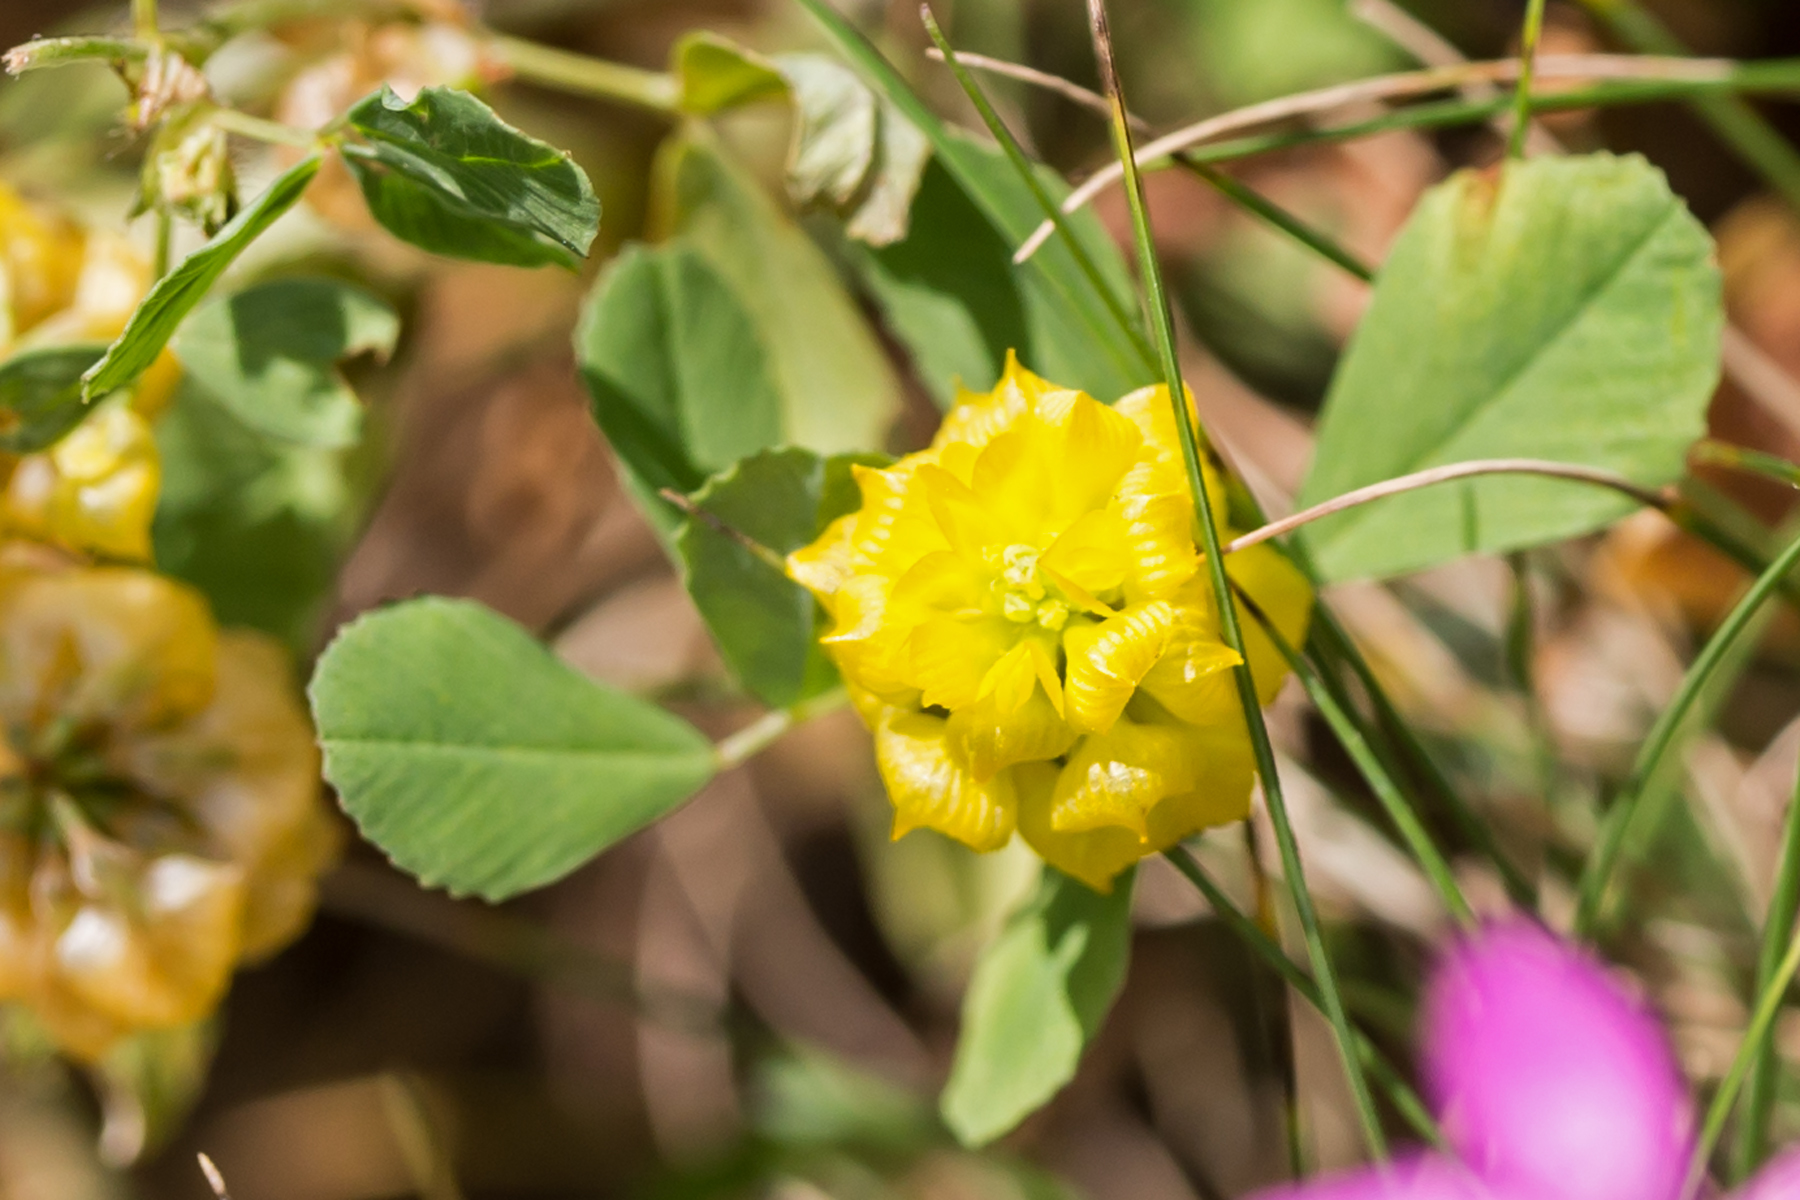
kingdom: Plantae
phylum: Tracheophyta
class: Magnoliopsida
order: Fabales
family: Fabaceae
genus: Trifolium
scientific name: Trifolium campestre
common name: Field clover
